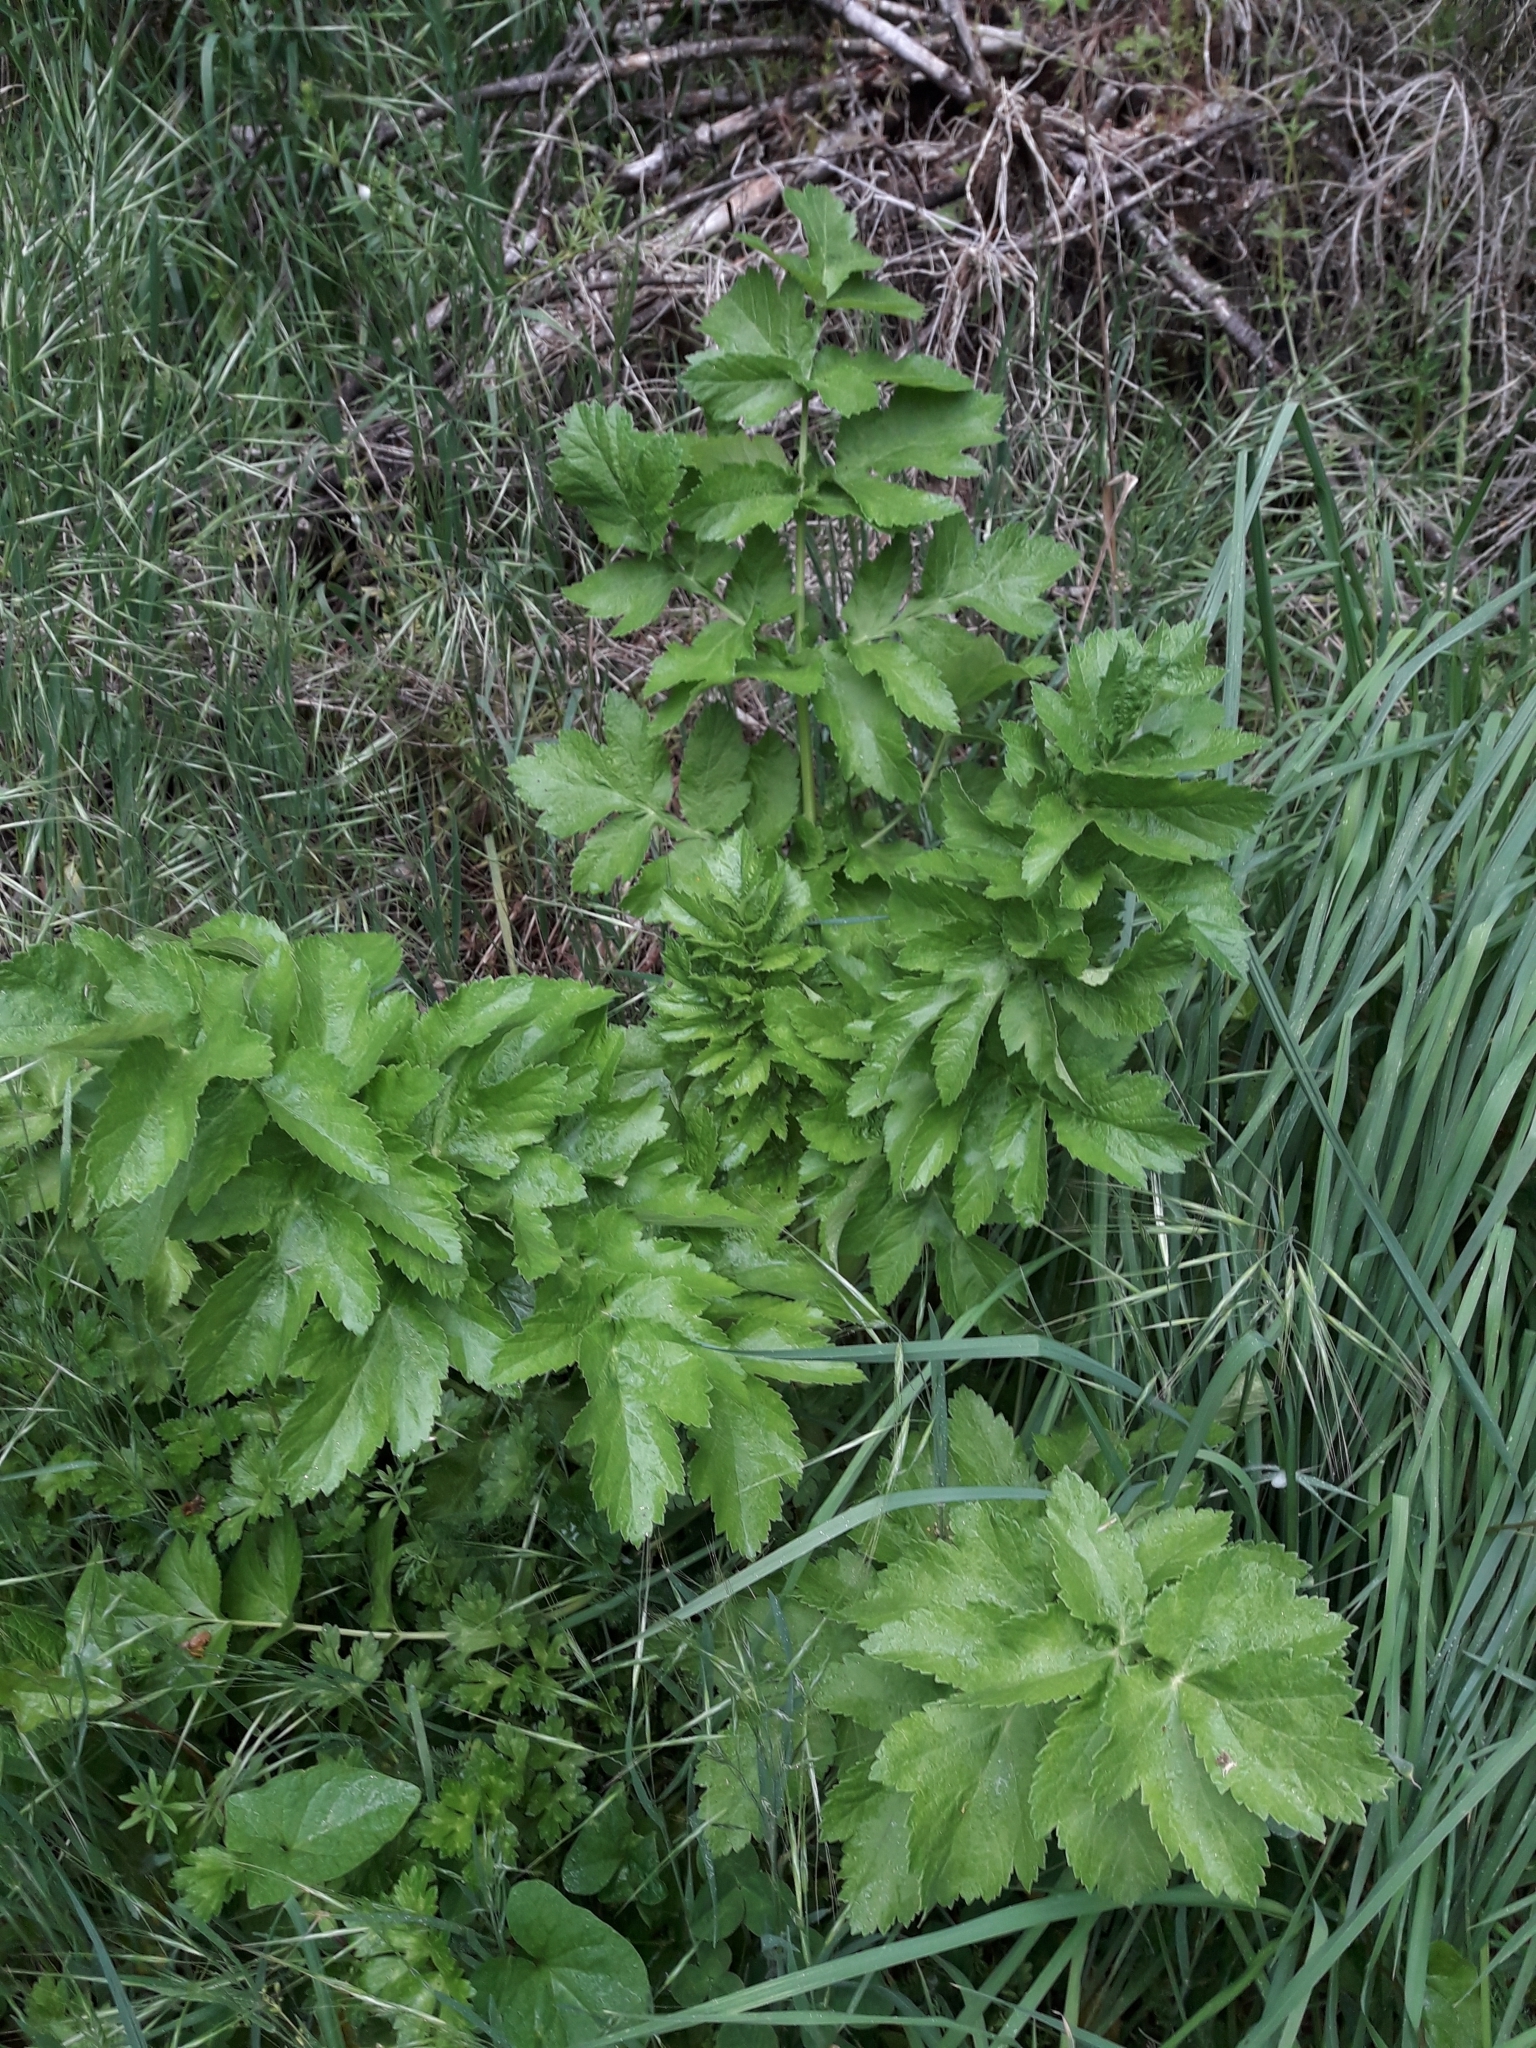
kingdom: Plantae
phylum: Tracheophyta
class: Magnoliopsida
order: Apiales
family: Apiaceae
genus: Pastinaca
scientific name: Pastinaca sativa
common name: Wild parsnip
